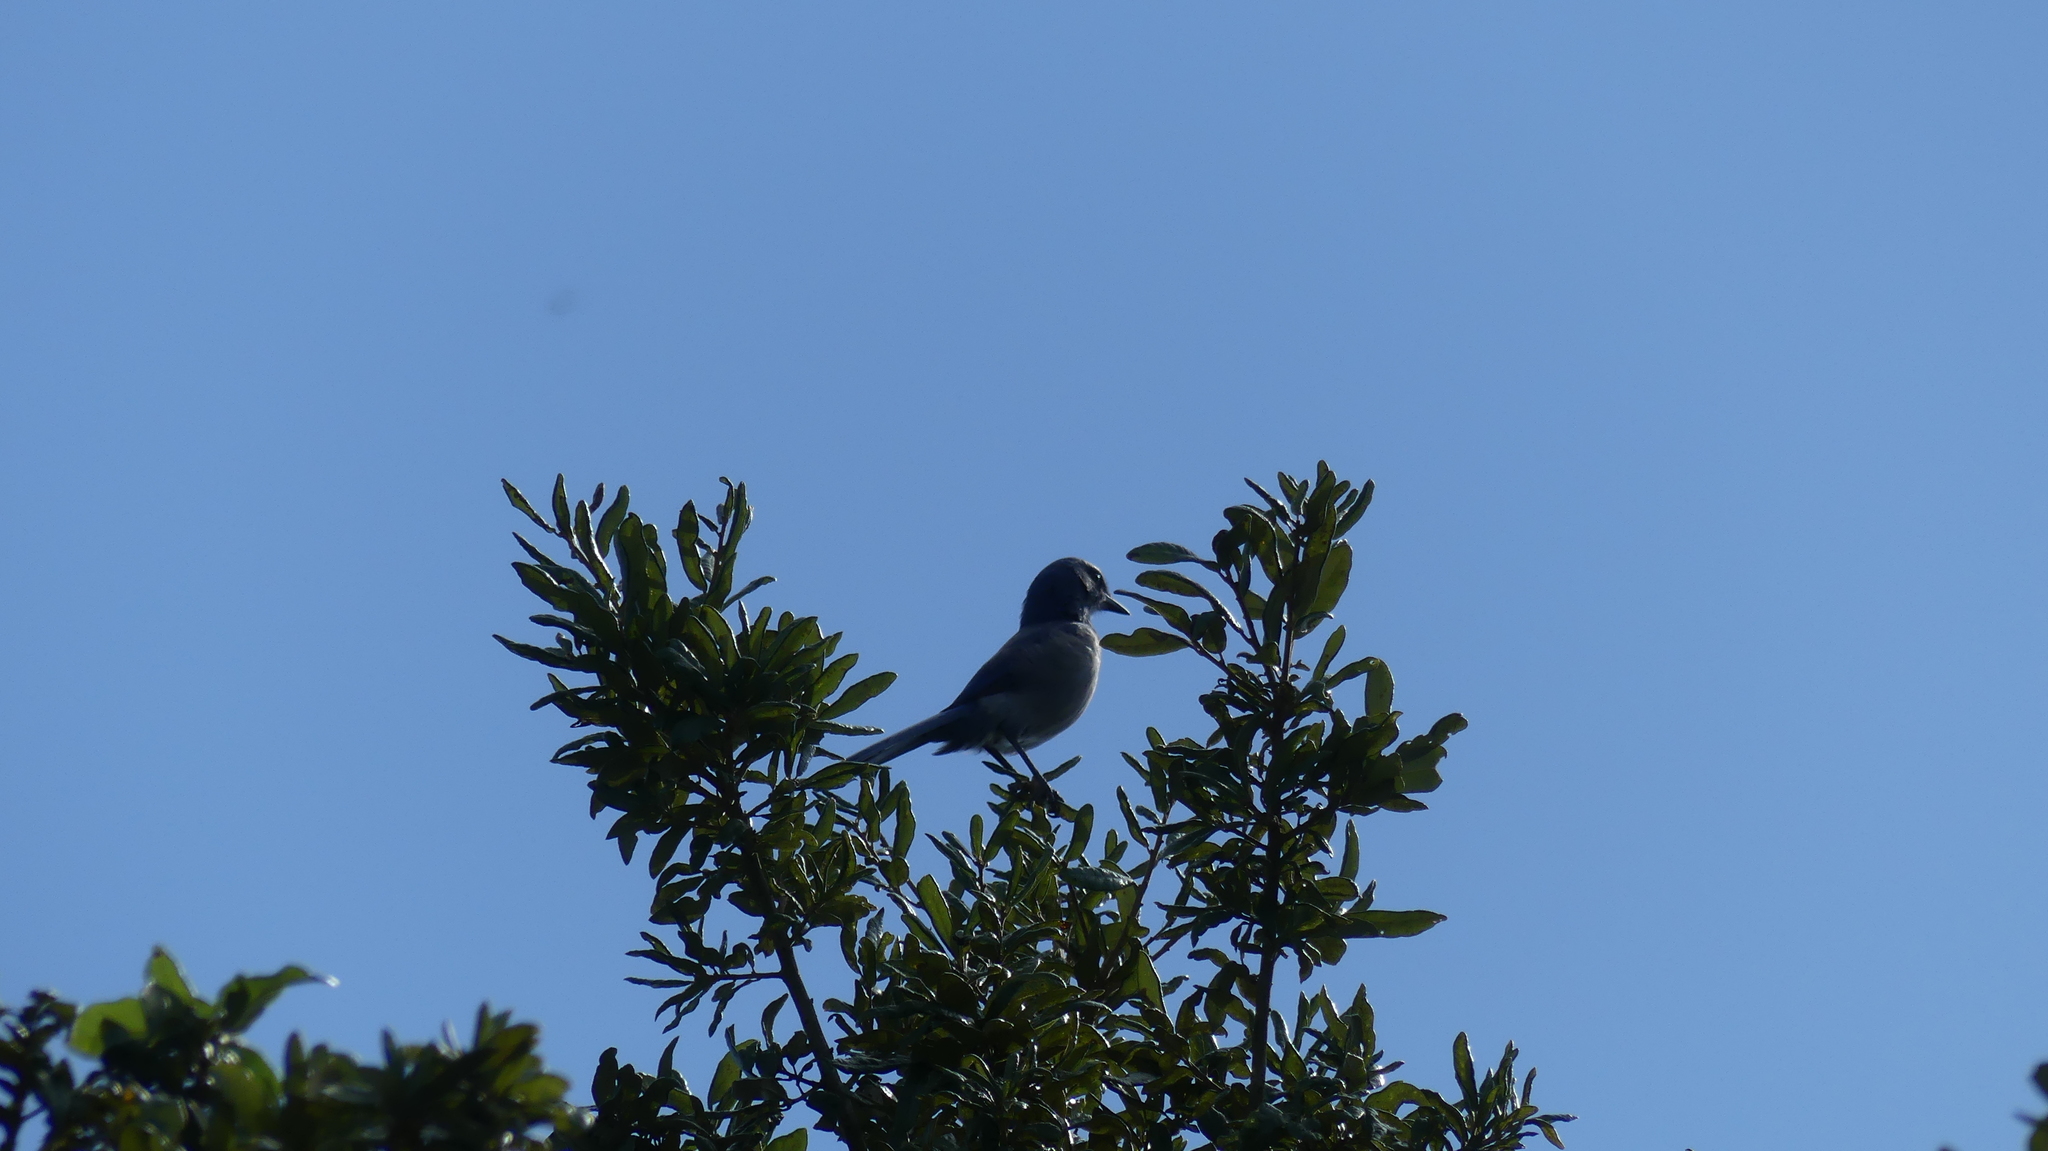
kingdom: Animalia
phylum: Chordata
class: Aves
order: Passeriformes
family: Corvidae
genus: Aphelocoma
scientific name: Aphelocoma coerulescens
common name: Florida scrub jay
